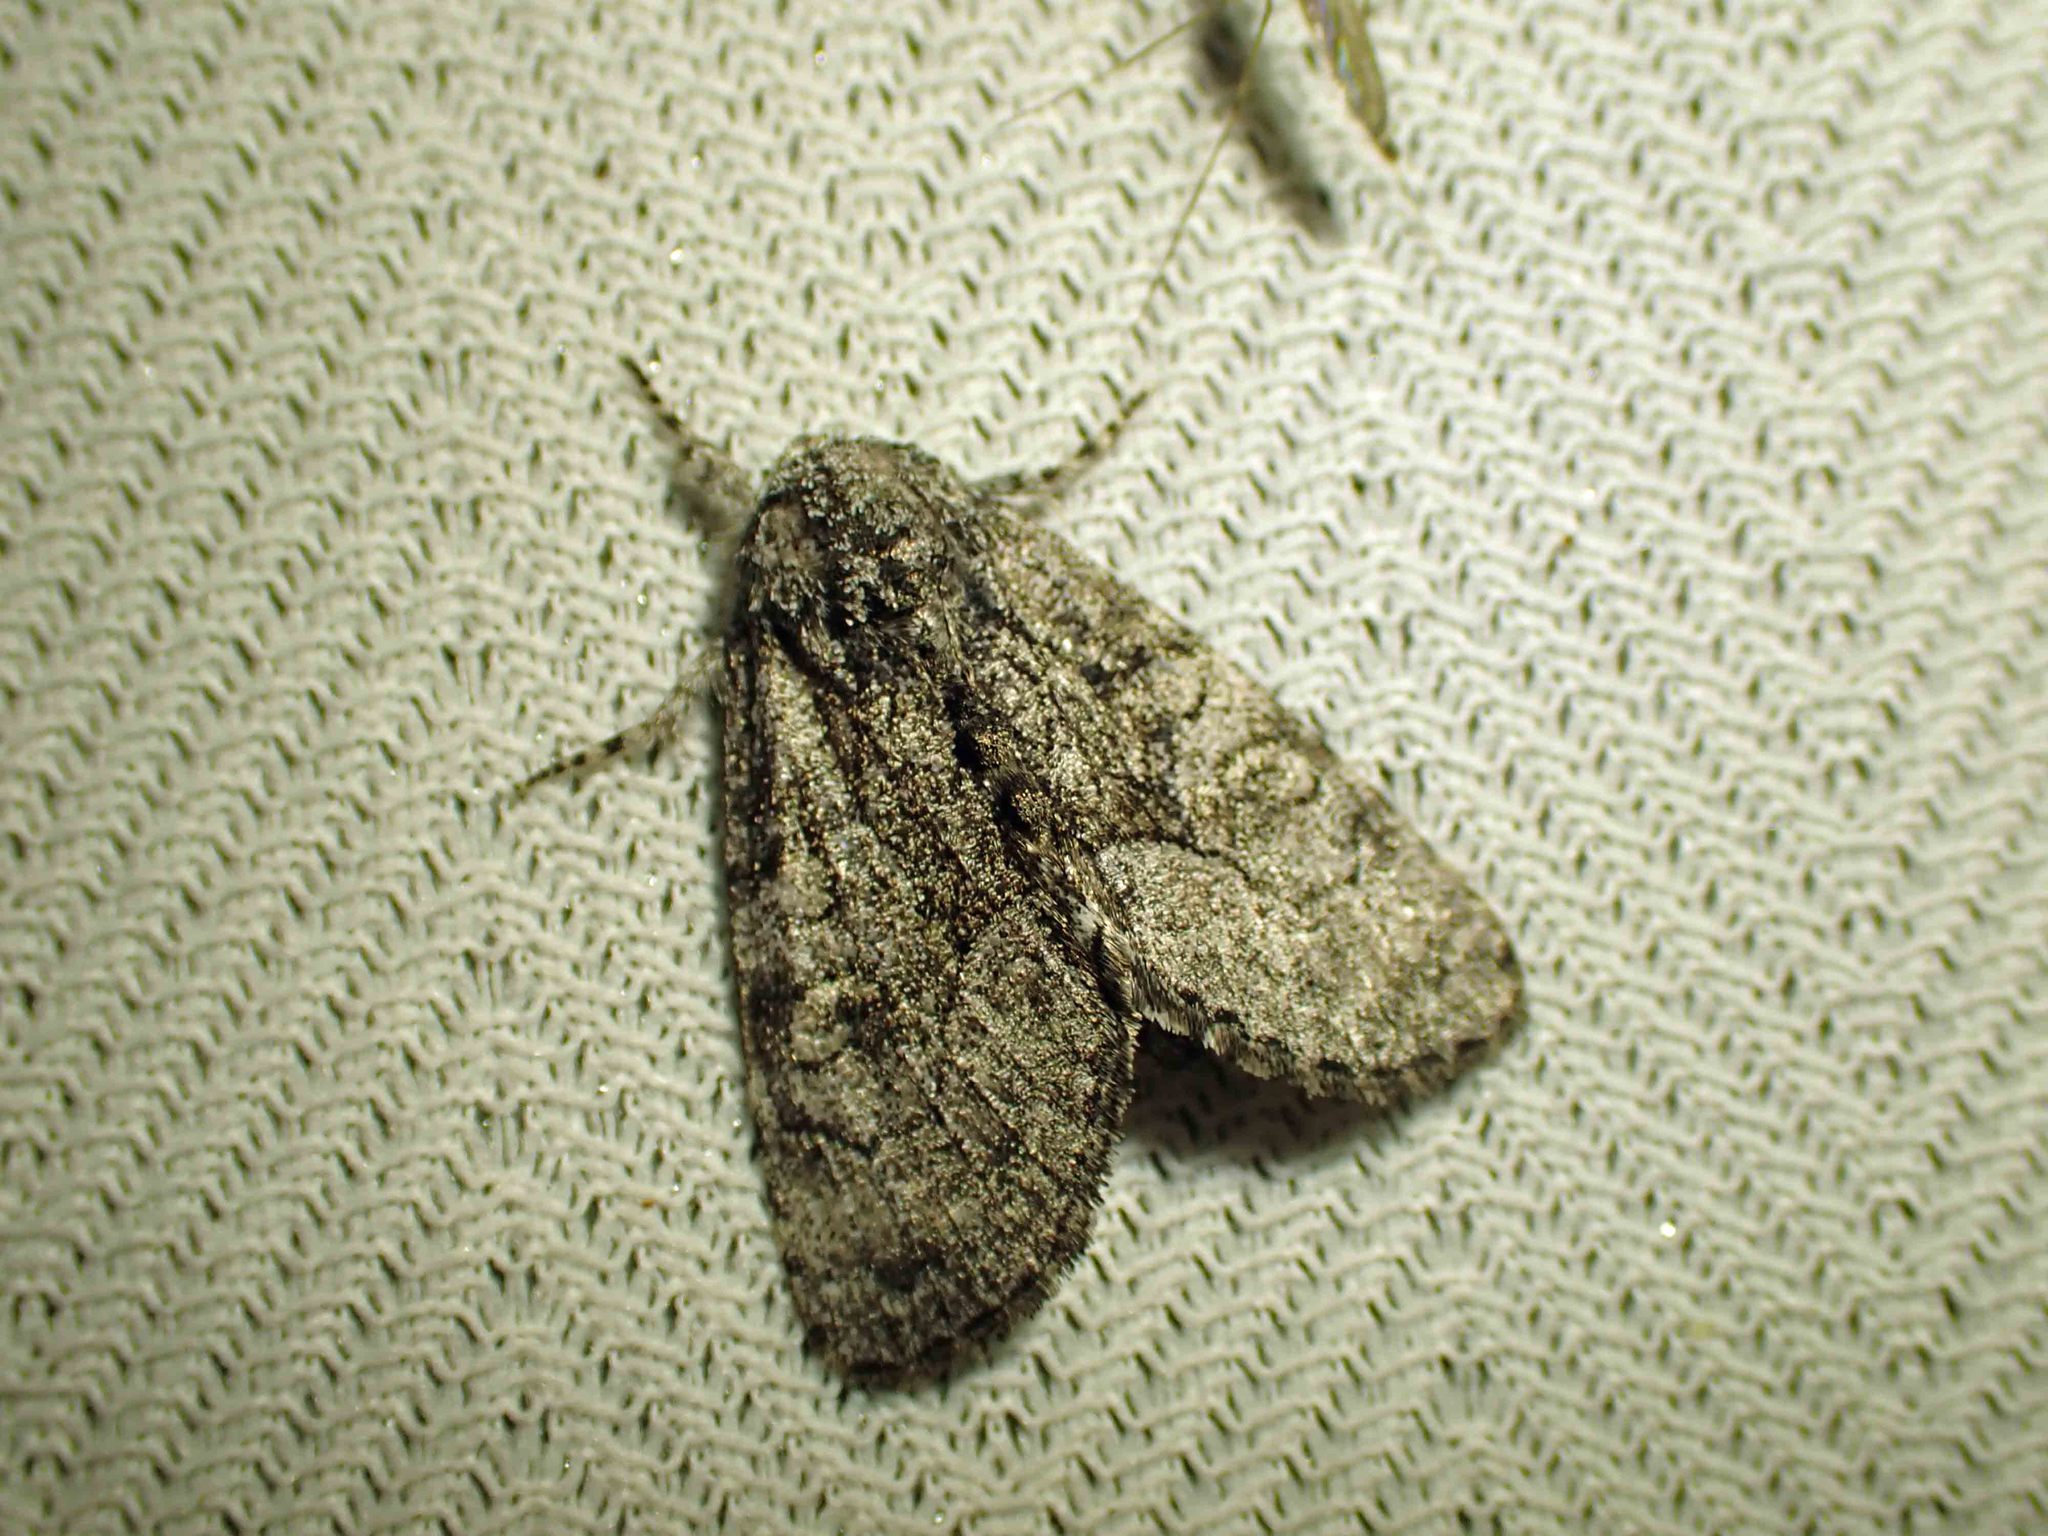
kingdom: Animalia
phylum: Arthropoda
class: Insecta
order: Lepidoptera
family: Noctuidae
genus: Raphia
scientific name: Raphia frater
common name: Brother
